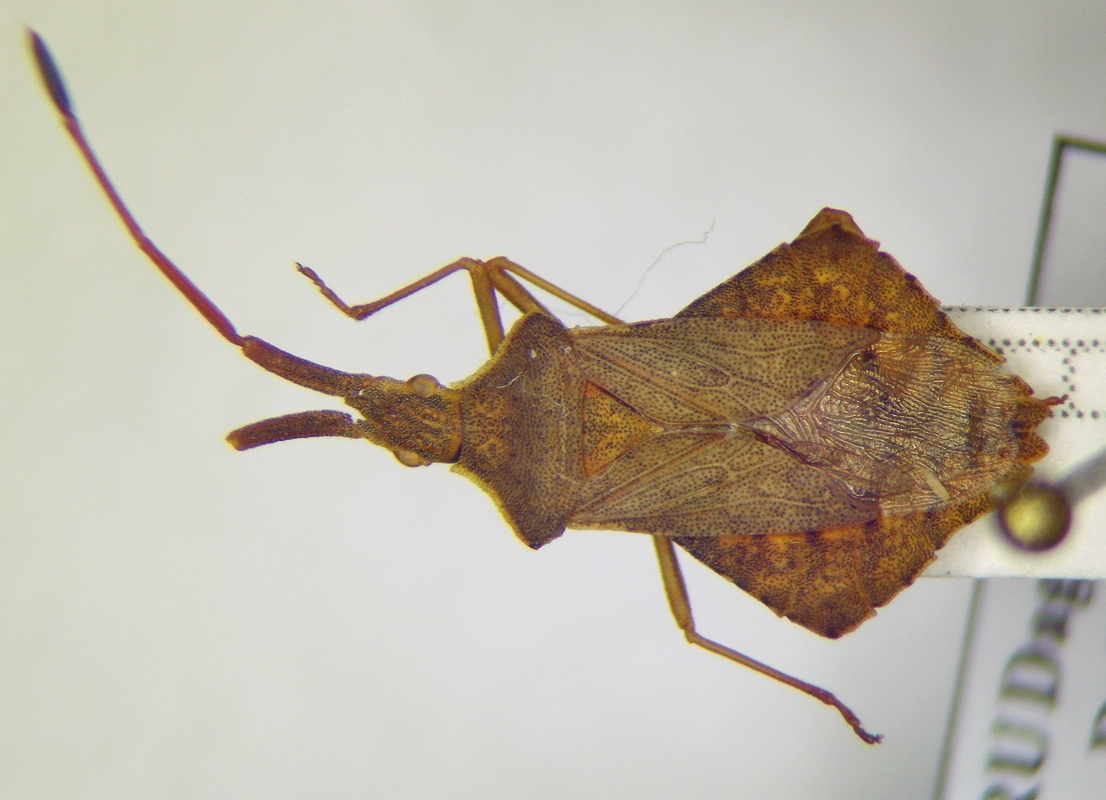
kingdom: Animalia
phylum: Arthropoda
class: Insecta
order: Hemiptera
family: Coreidae
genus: Syromastus
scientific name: Syromastus rhombeus
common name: Rhombic leatherbug
